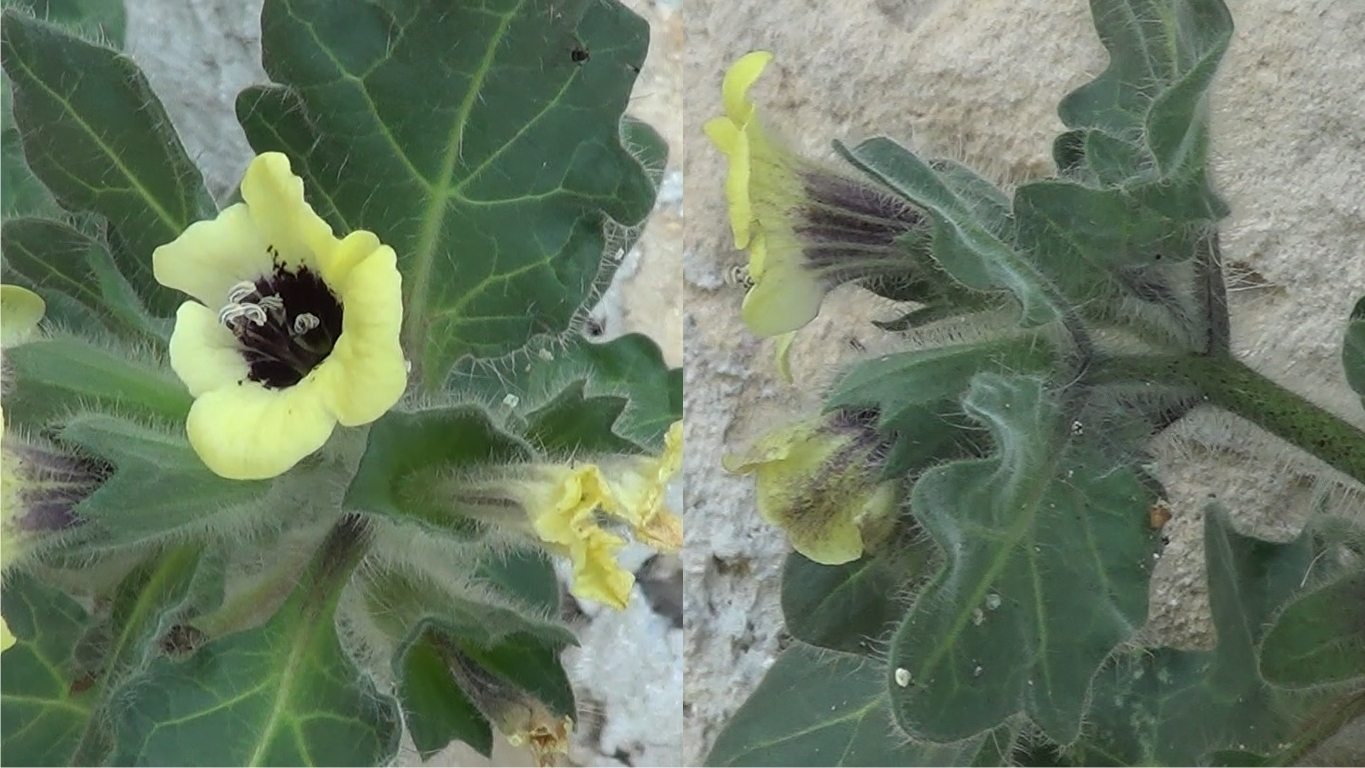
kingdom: Plantae
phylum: Tracheophyta
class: Magnoliopsida
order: Solanales
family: Solanaceae
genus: Hyoscyamus
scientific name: Hyoscyamus albus
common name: White henbane
